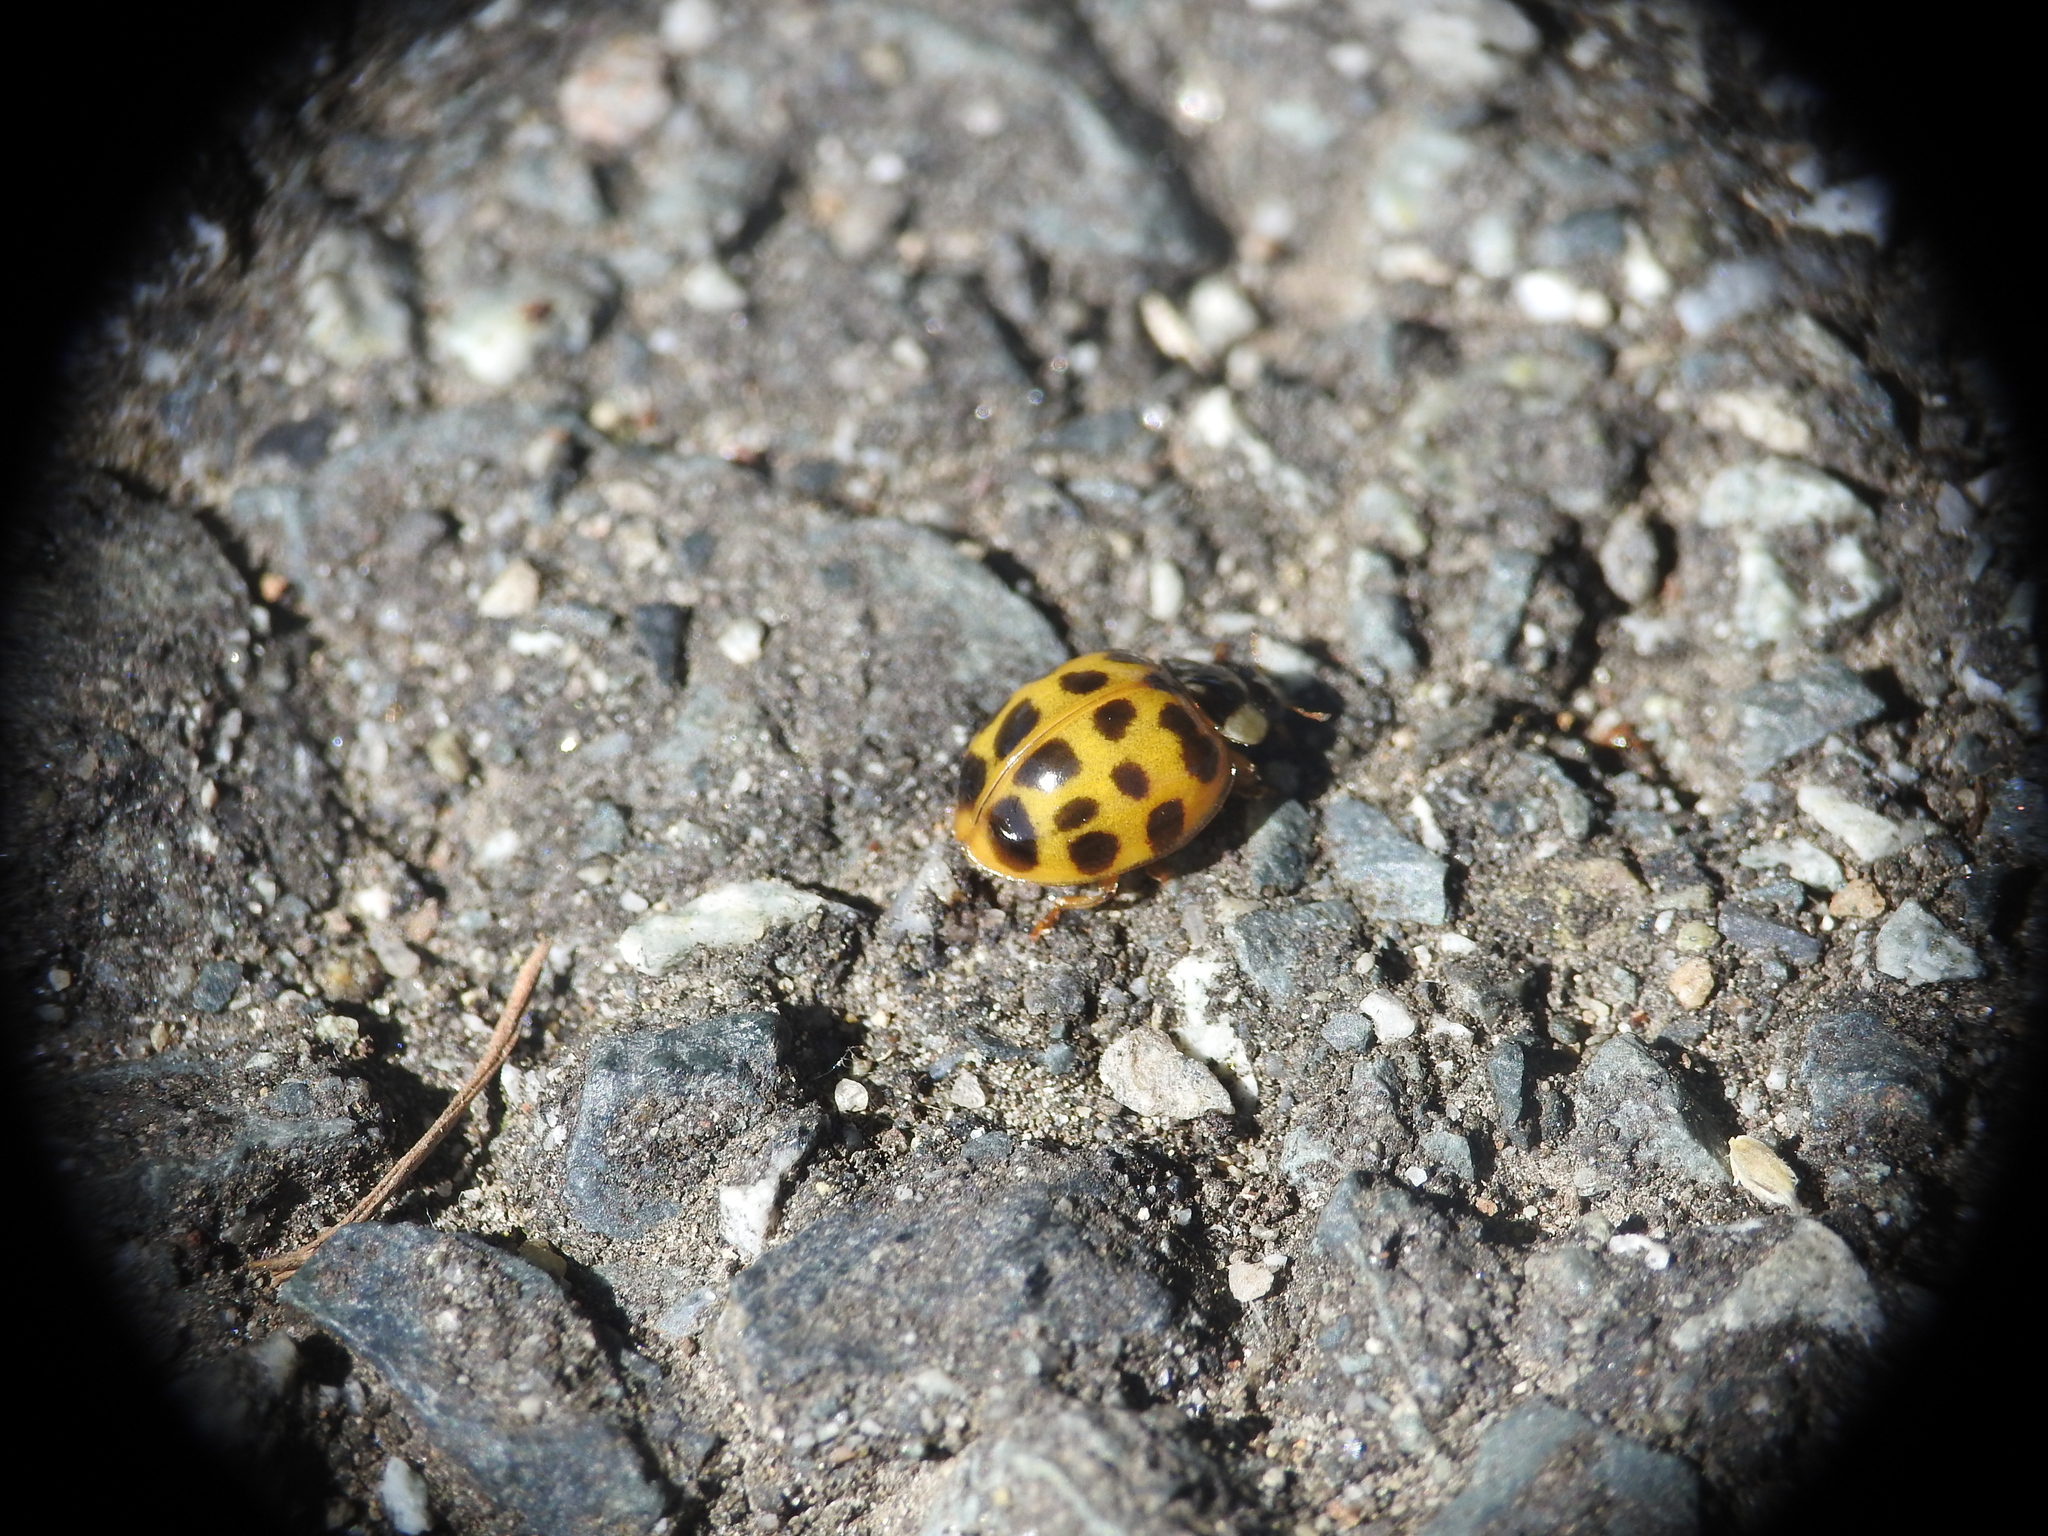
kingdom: Animalia
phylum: Arthropoda
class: Insecta
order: Coleoptera
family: Coccinellidae
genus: Harmonia
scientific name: Harmonia axyridis
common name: Harlequin ladybird
